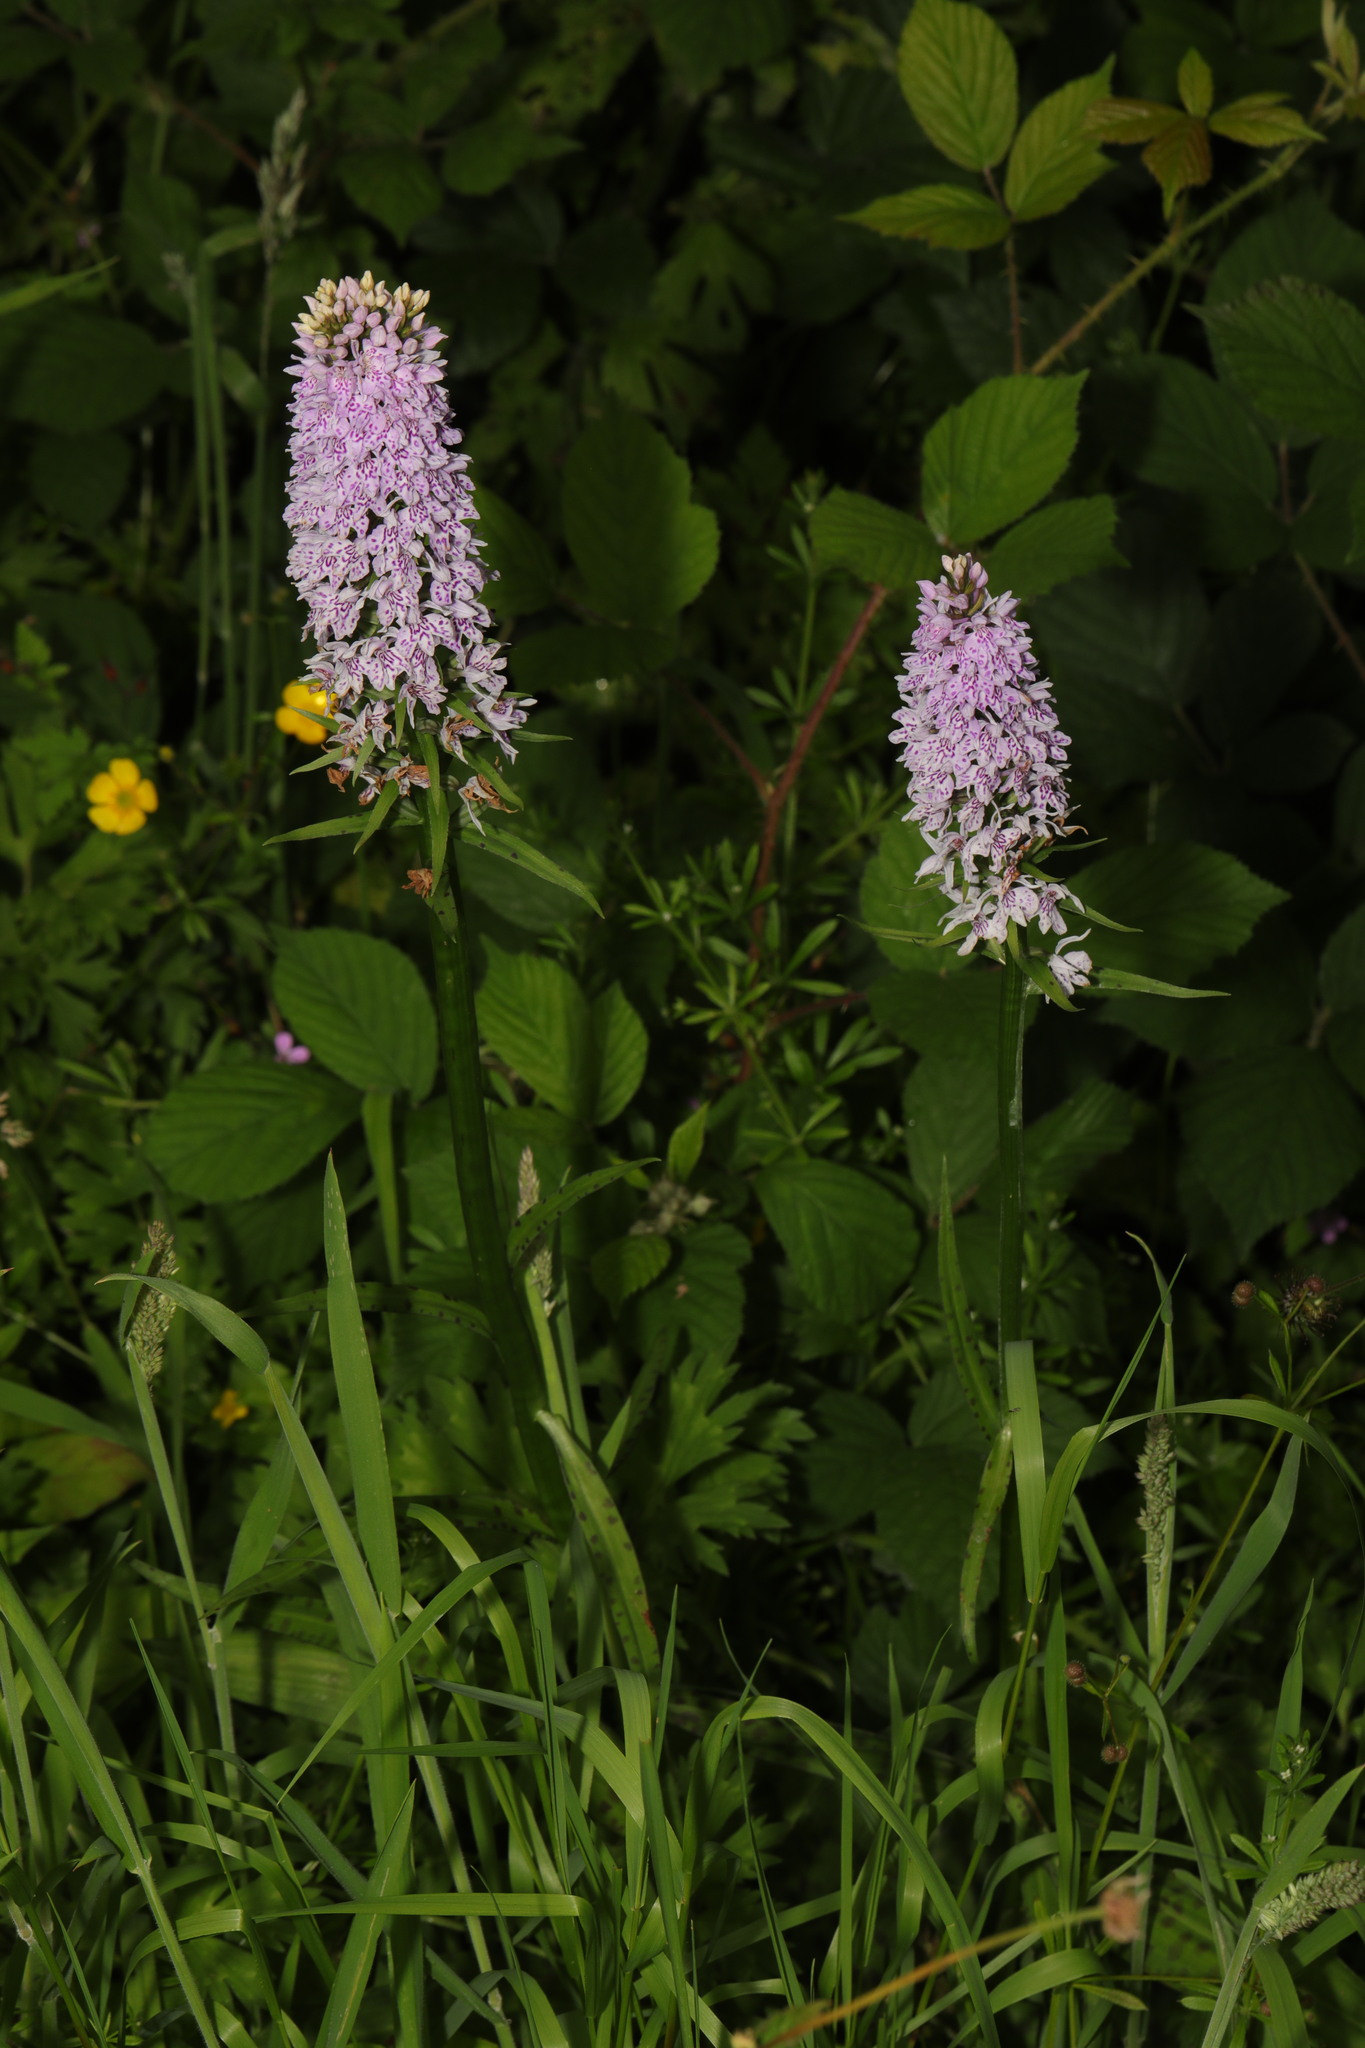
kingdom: Plantae
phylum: Tracheophyta
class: Liliopsida
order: Asparagales
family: Orchidaceae
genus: Dactylorhiza
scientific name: Dactylorhiza maculata
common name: Heath spotted-orchid
